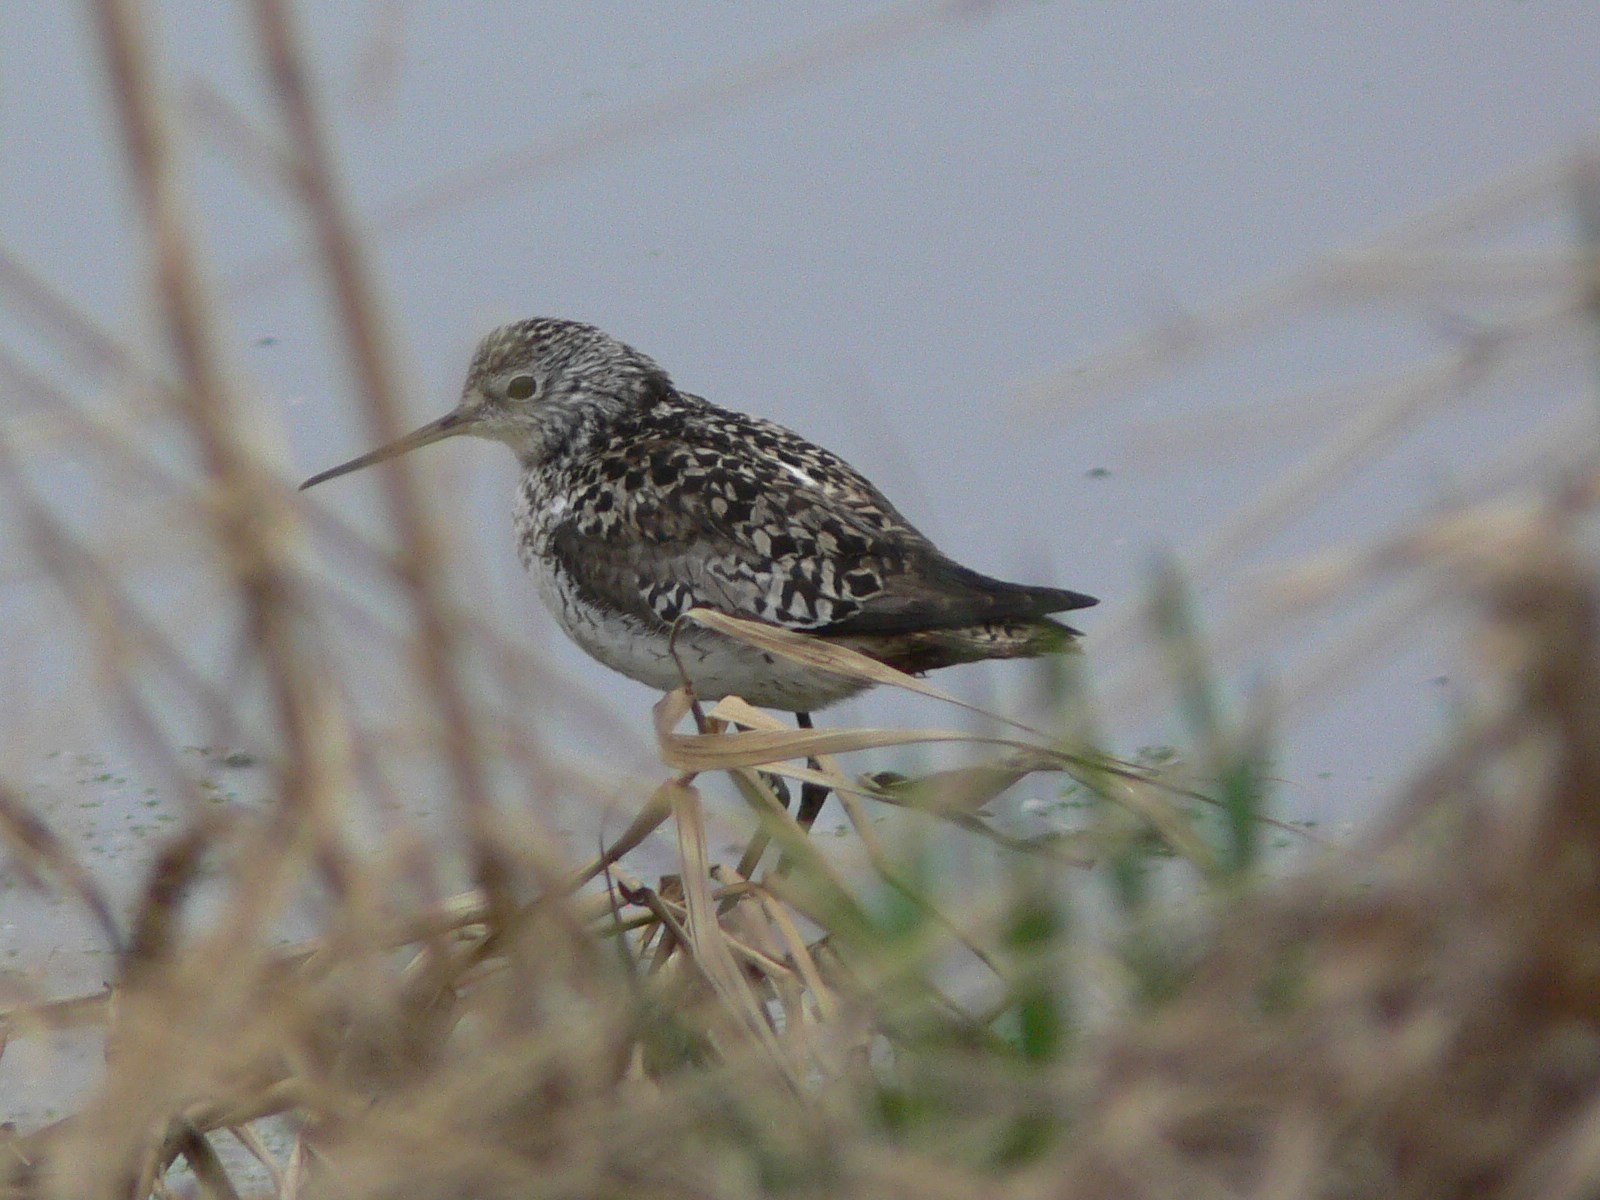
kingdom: Animalia
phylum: Chordata
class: Aves
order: Charadriiformes
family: Scolopacidae
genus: Tringa
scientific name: Tringa stagnatilis
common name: Marsh sandpiper
